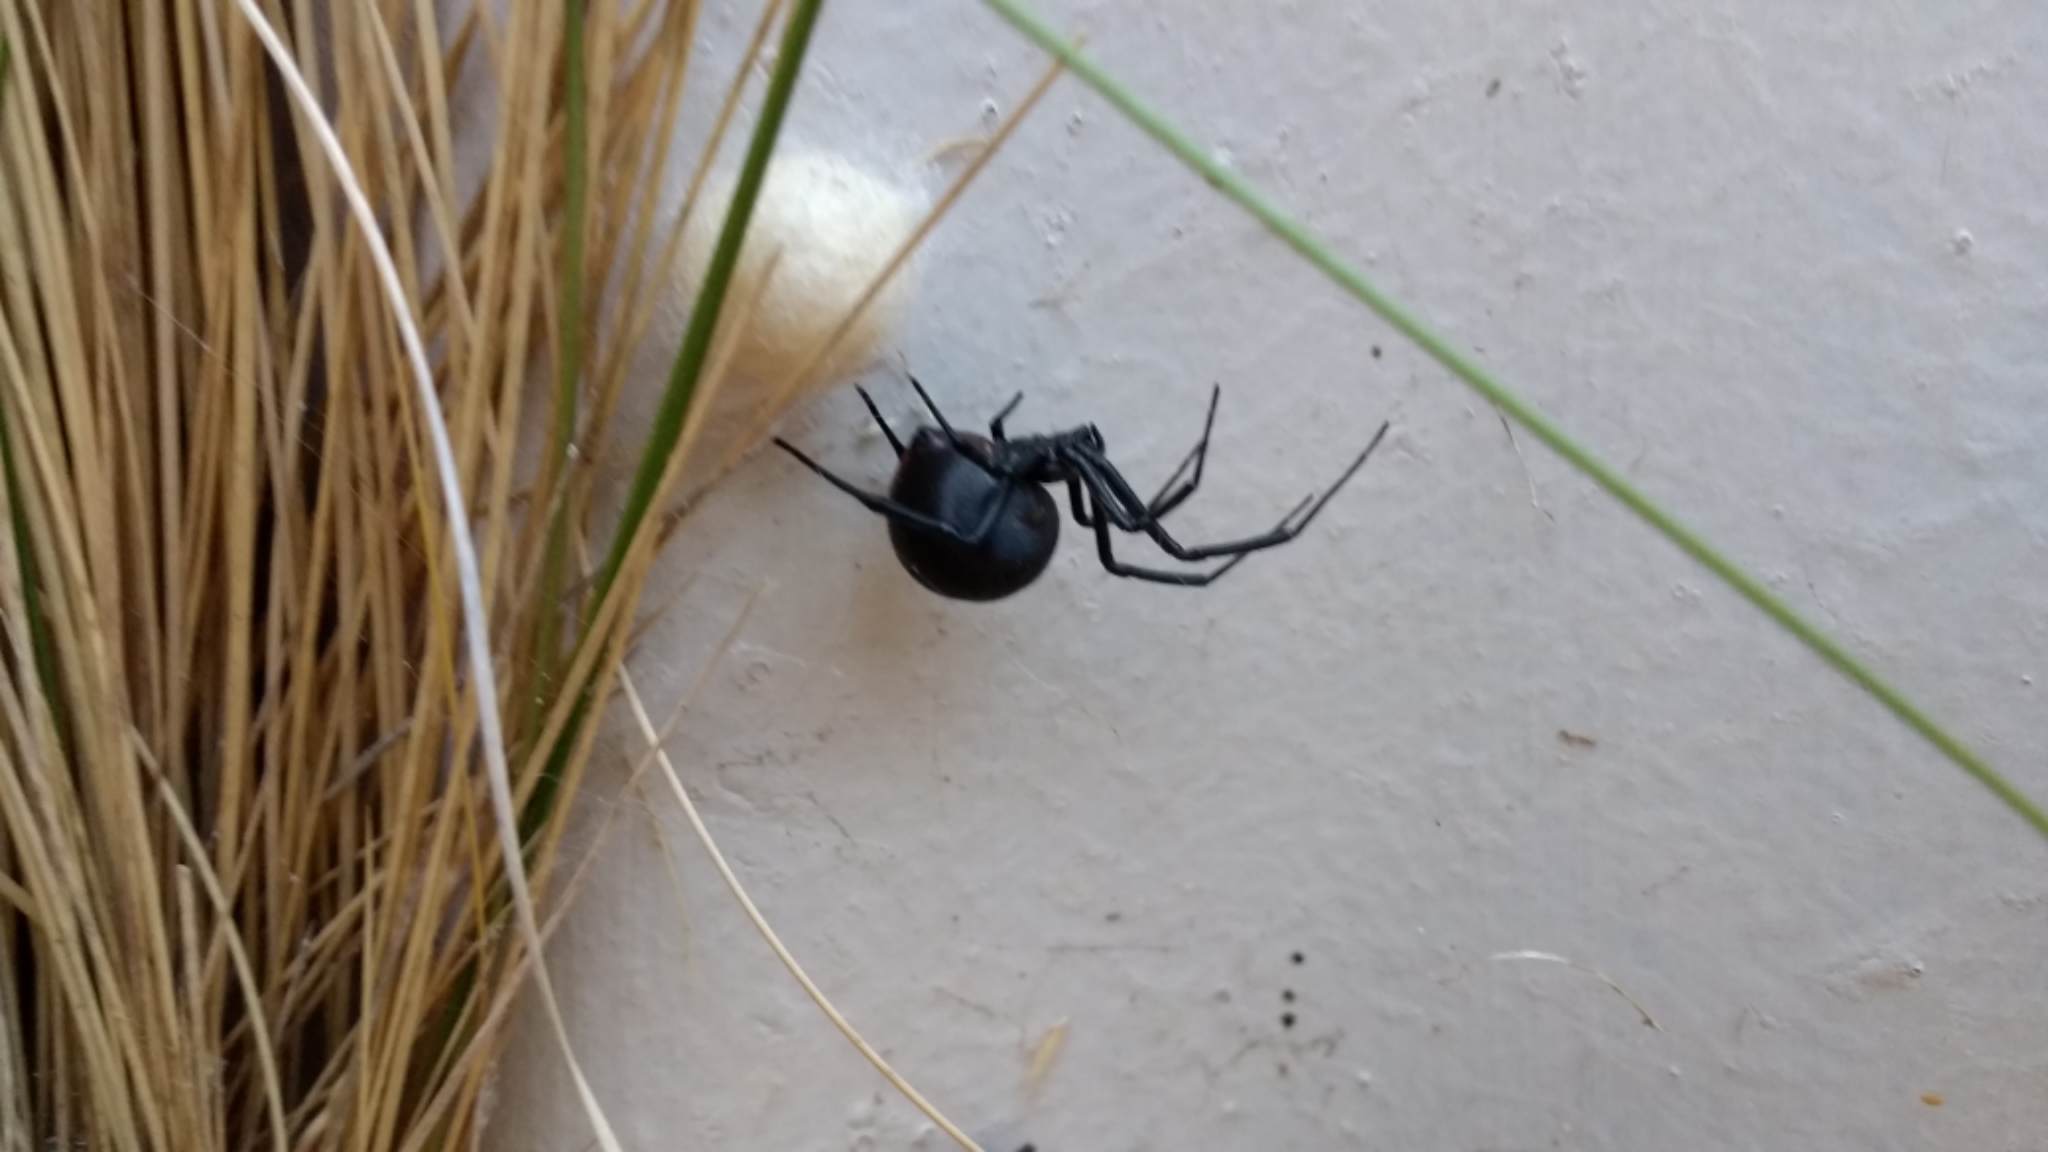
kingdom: Animalia
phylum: Arthropoda
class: Arachnida
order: Araneae
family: Theridiidae
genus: Latrodectus
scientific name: Latrodectus mirabilis
